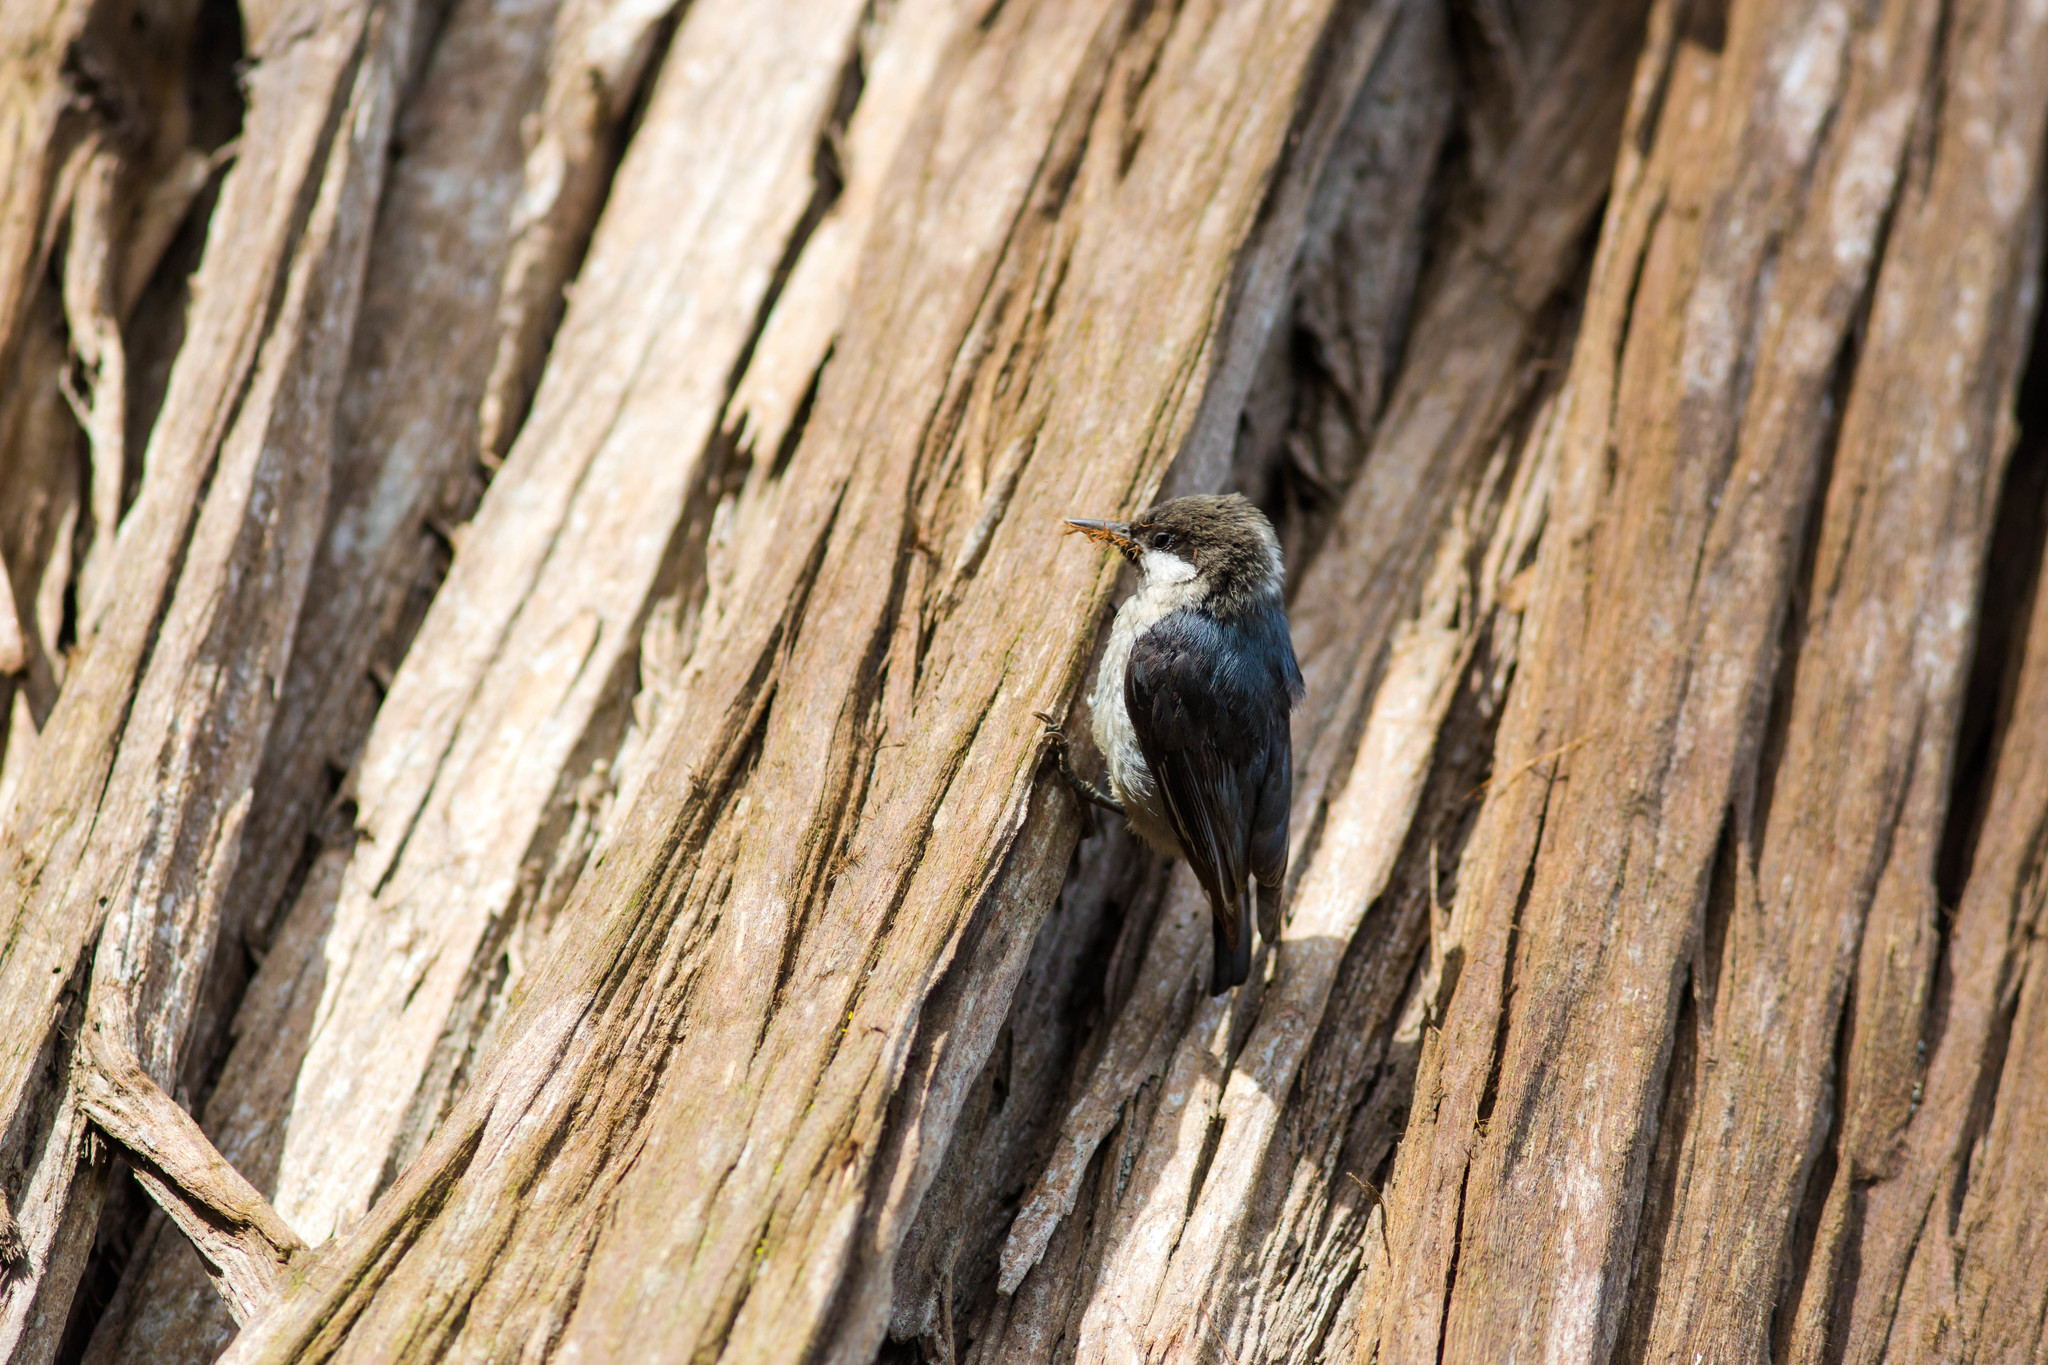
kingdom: Animalia
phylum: Chordata
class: Aves
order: Passeriformes
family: Sittidae
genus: Sitta
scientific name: Sitta pygmaea
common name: Pygmy nuthatch
